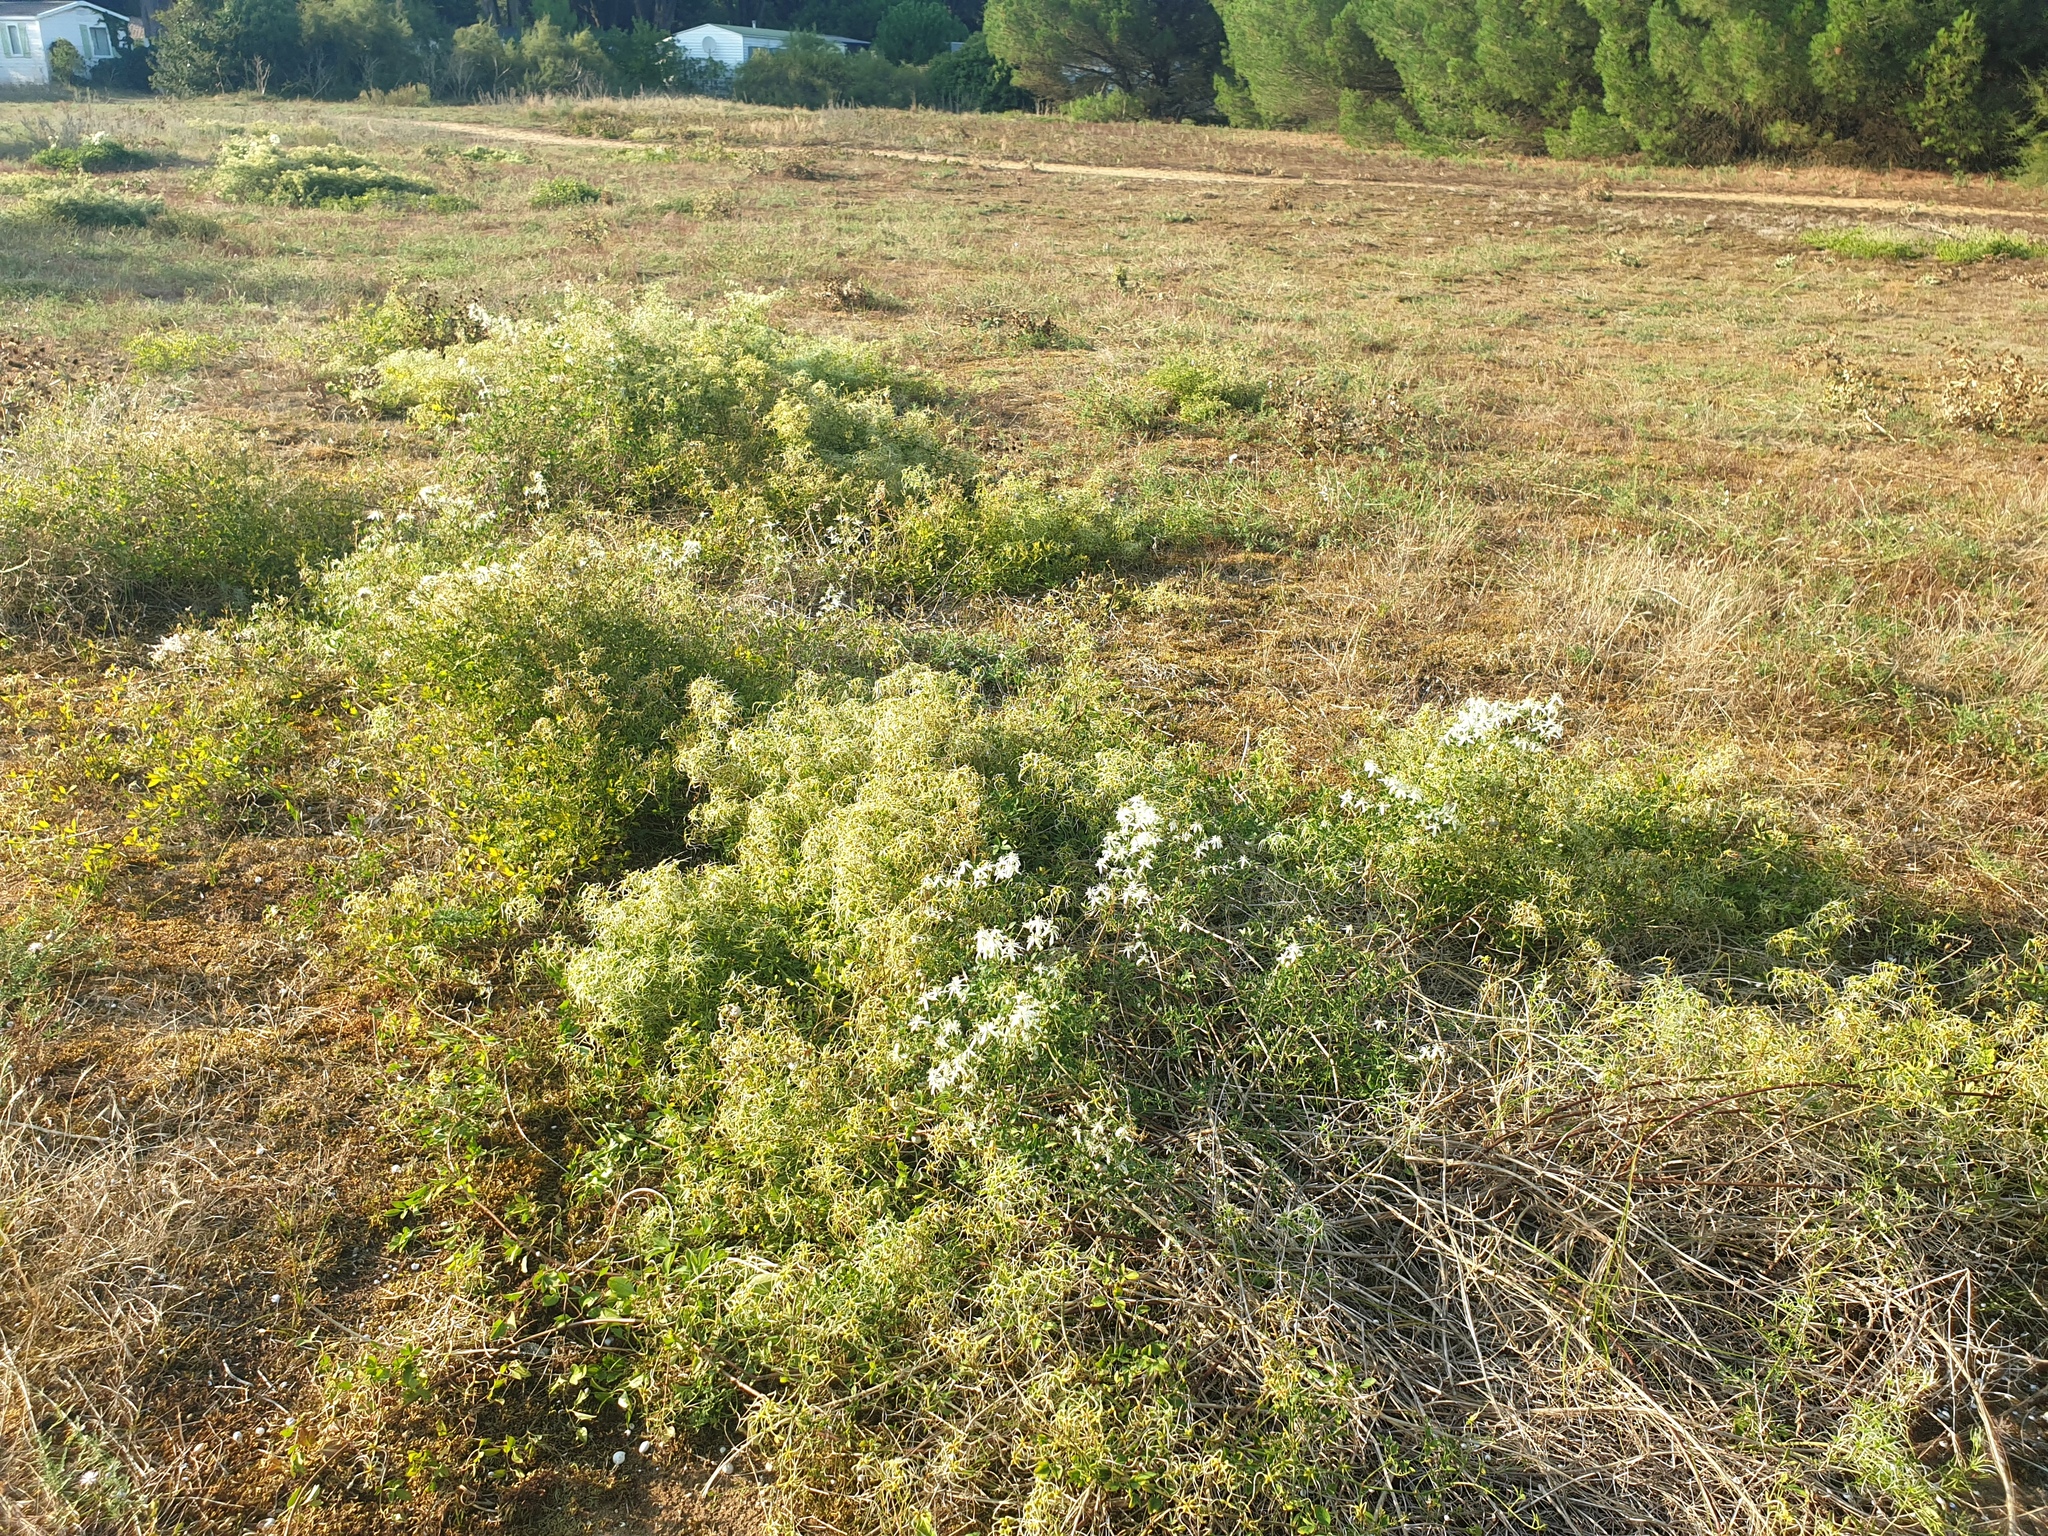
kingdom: Plantae
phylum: Tracheophyta
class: Magnoliopsida
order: Ranunculales
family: Ranunculaceae
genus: Clematis
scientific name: Clematis flammula
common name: Virgin's-bower
